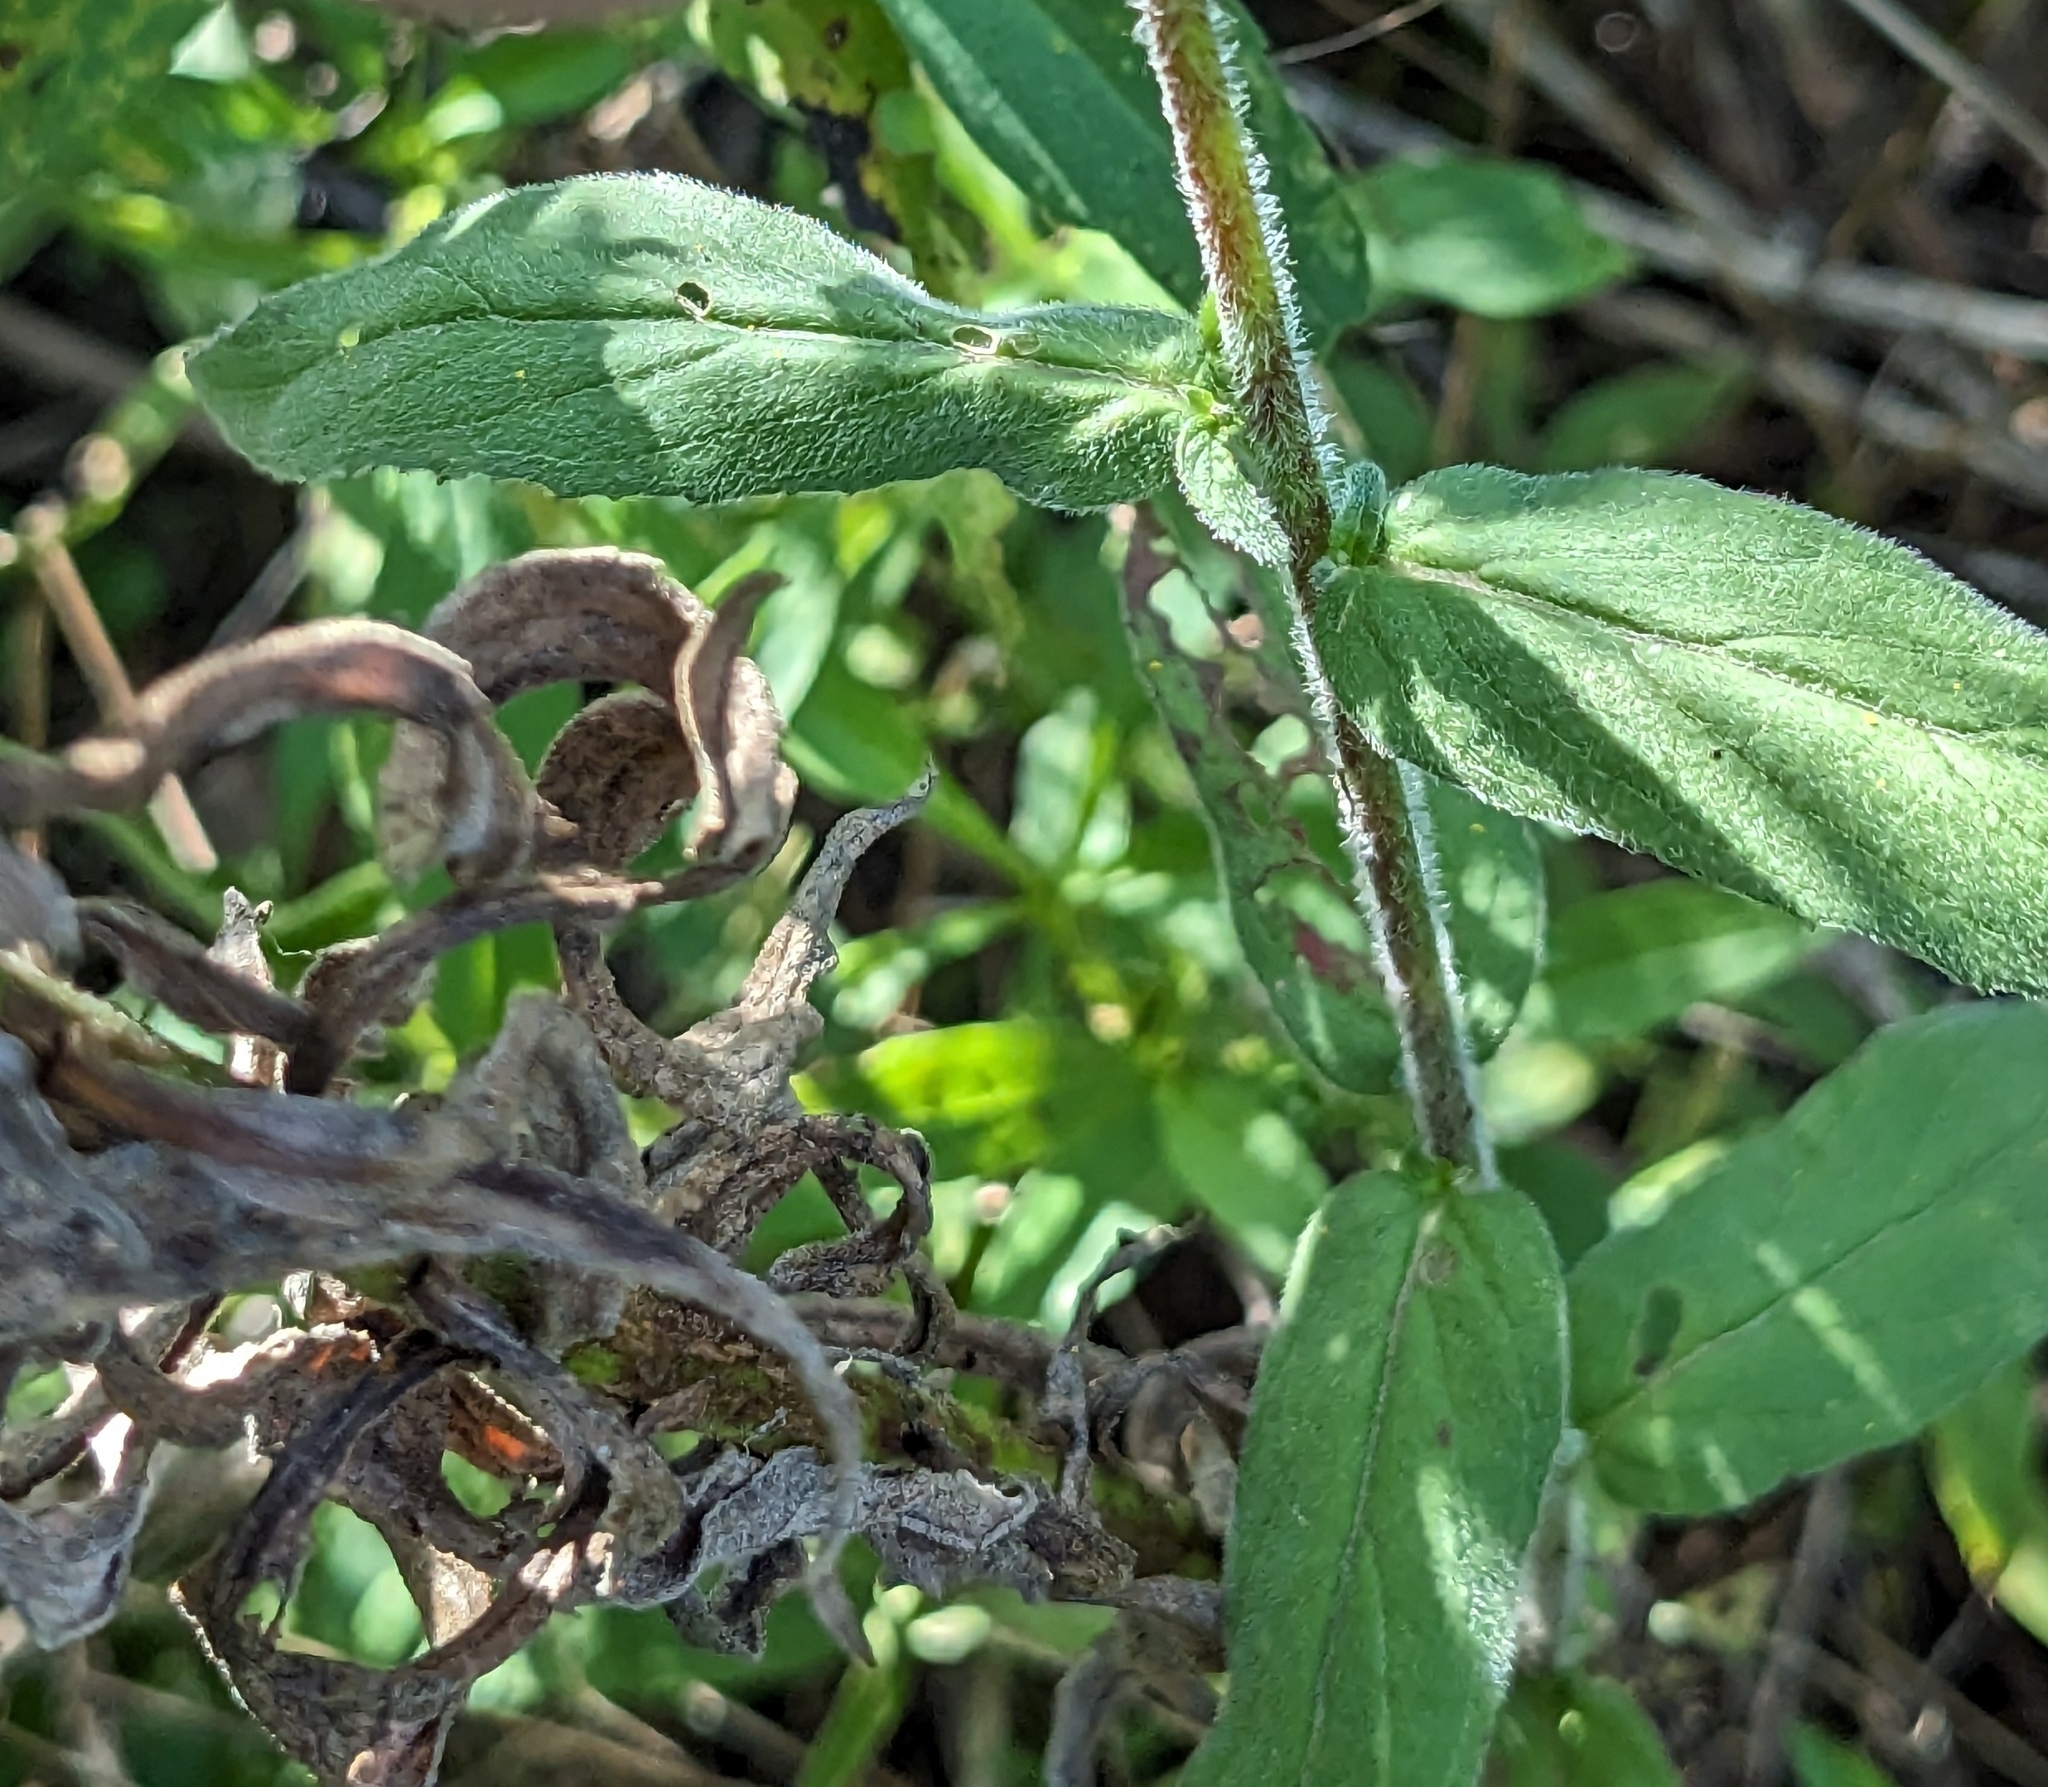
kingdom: Plantae
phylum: Tracheophyta
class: Magnoliopsida
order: Myrtales
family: Onagraceae
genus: Epilobium
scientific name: Epilobium coloratum
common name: Bronze willowherb
